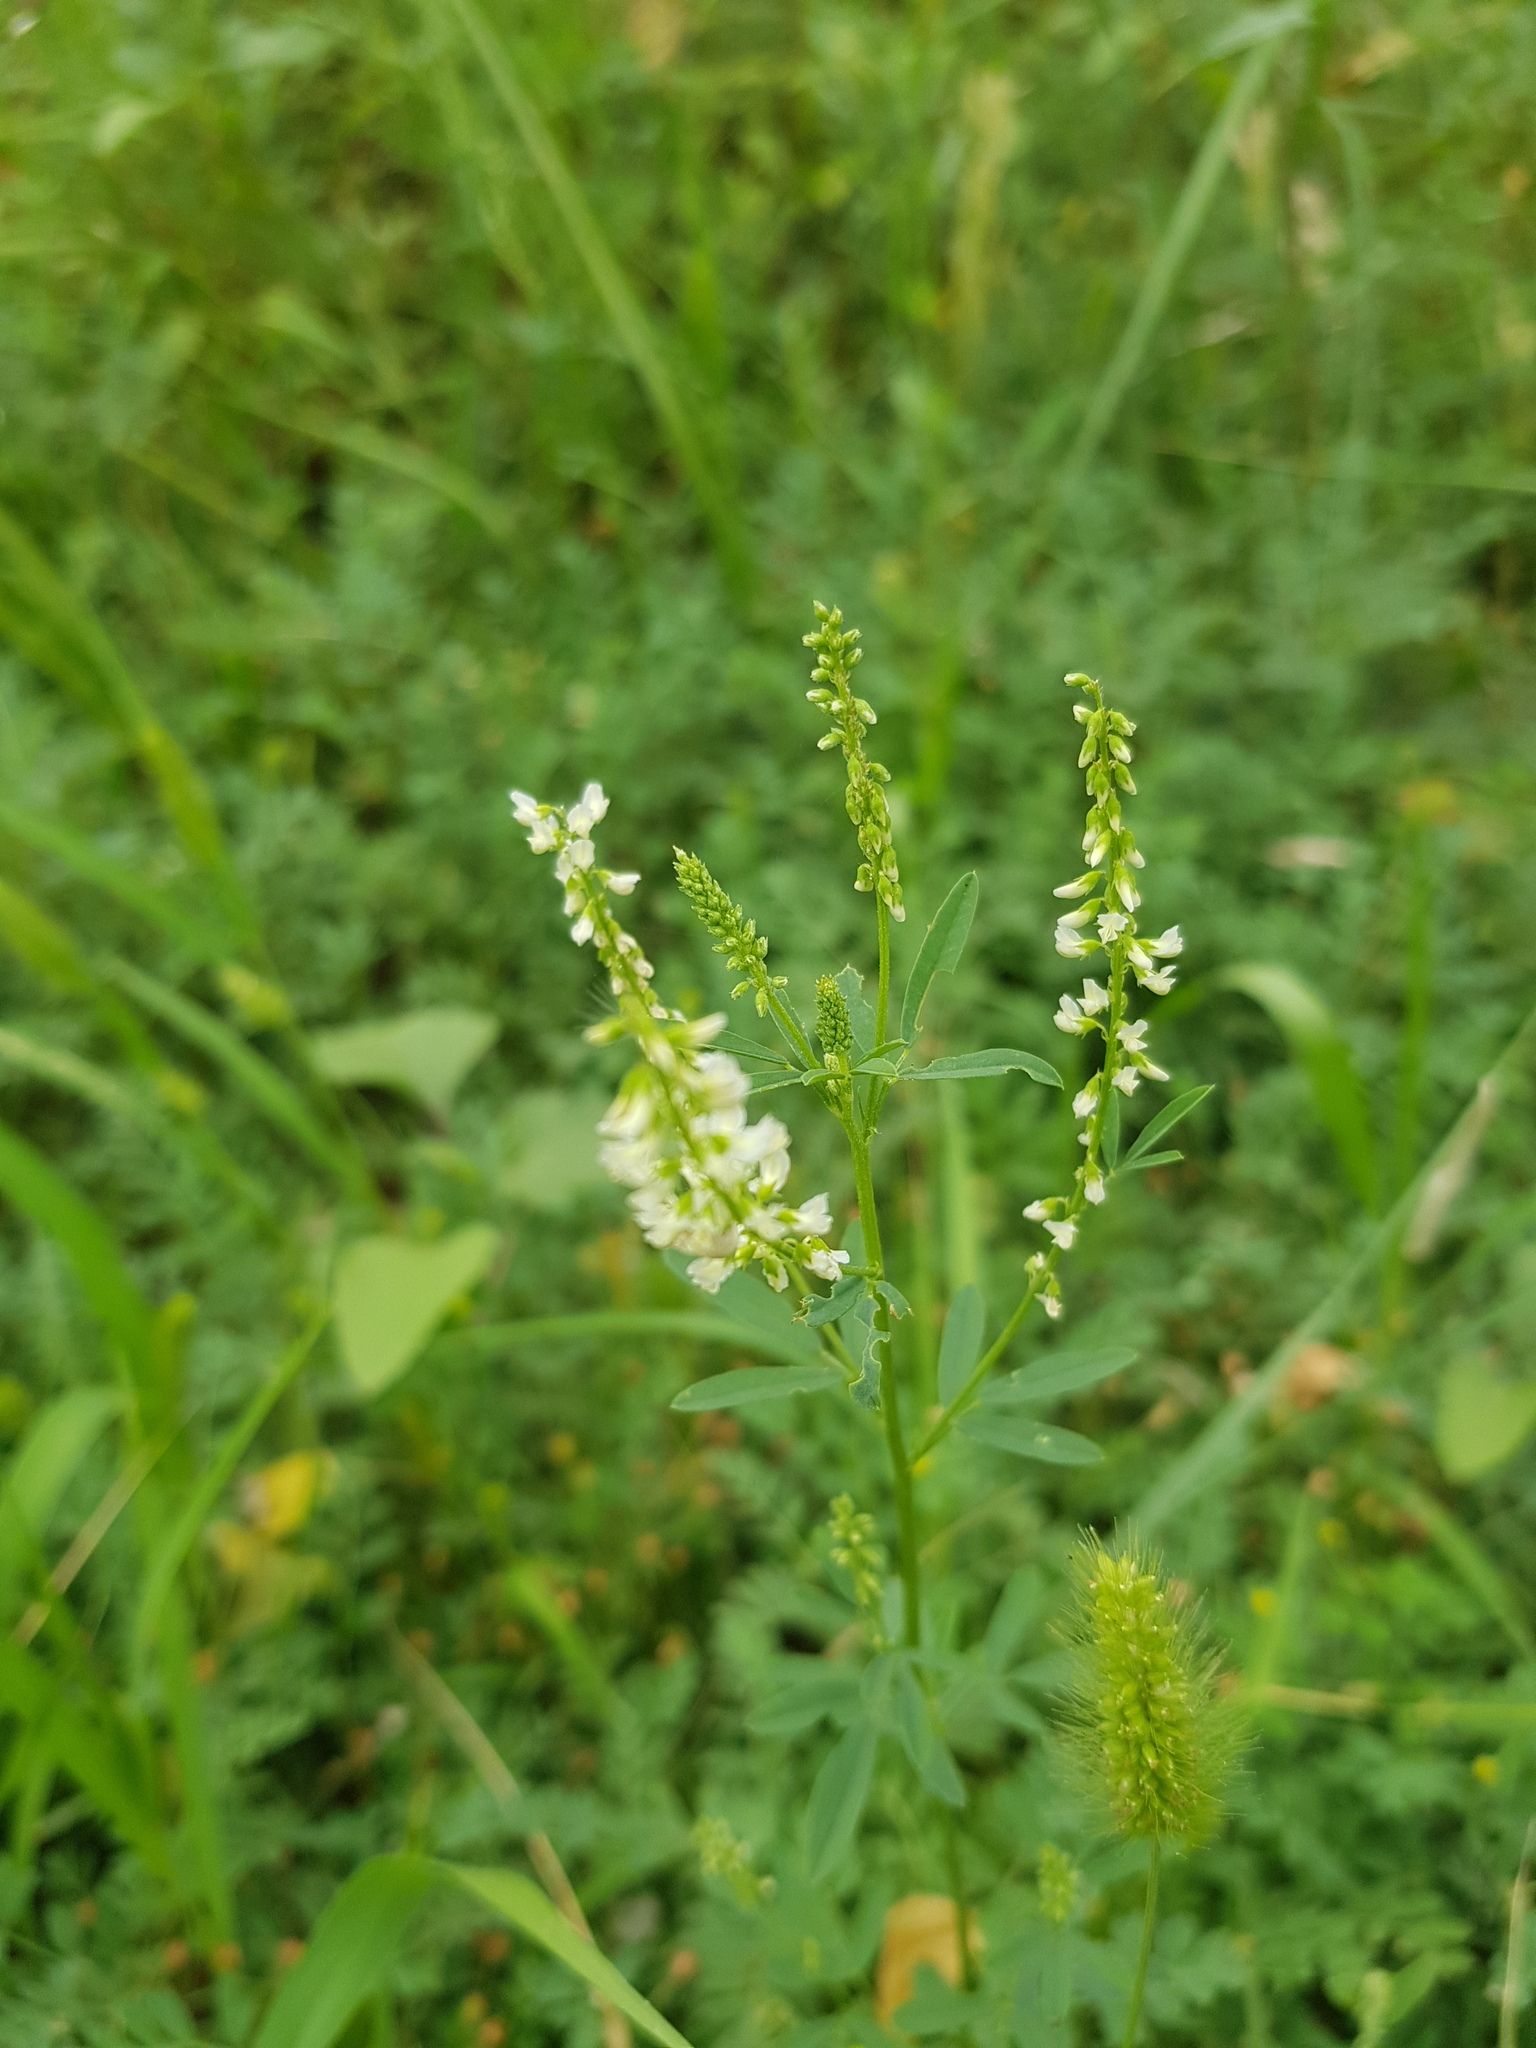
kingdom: Plantae
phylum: Tracheophyta
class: Magnoliopsida
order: Fabales
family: Fabaceae
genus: Melilotus
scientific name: Melilotus albus
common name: White melilot
